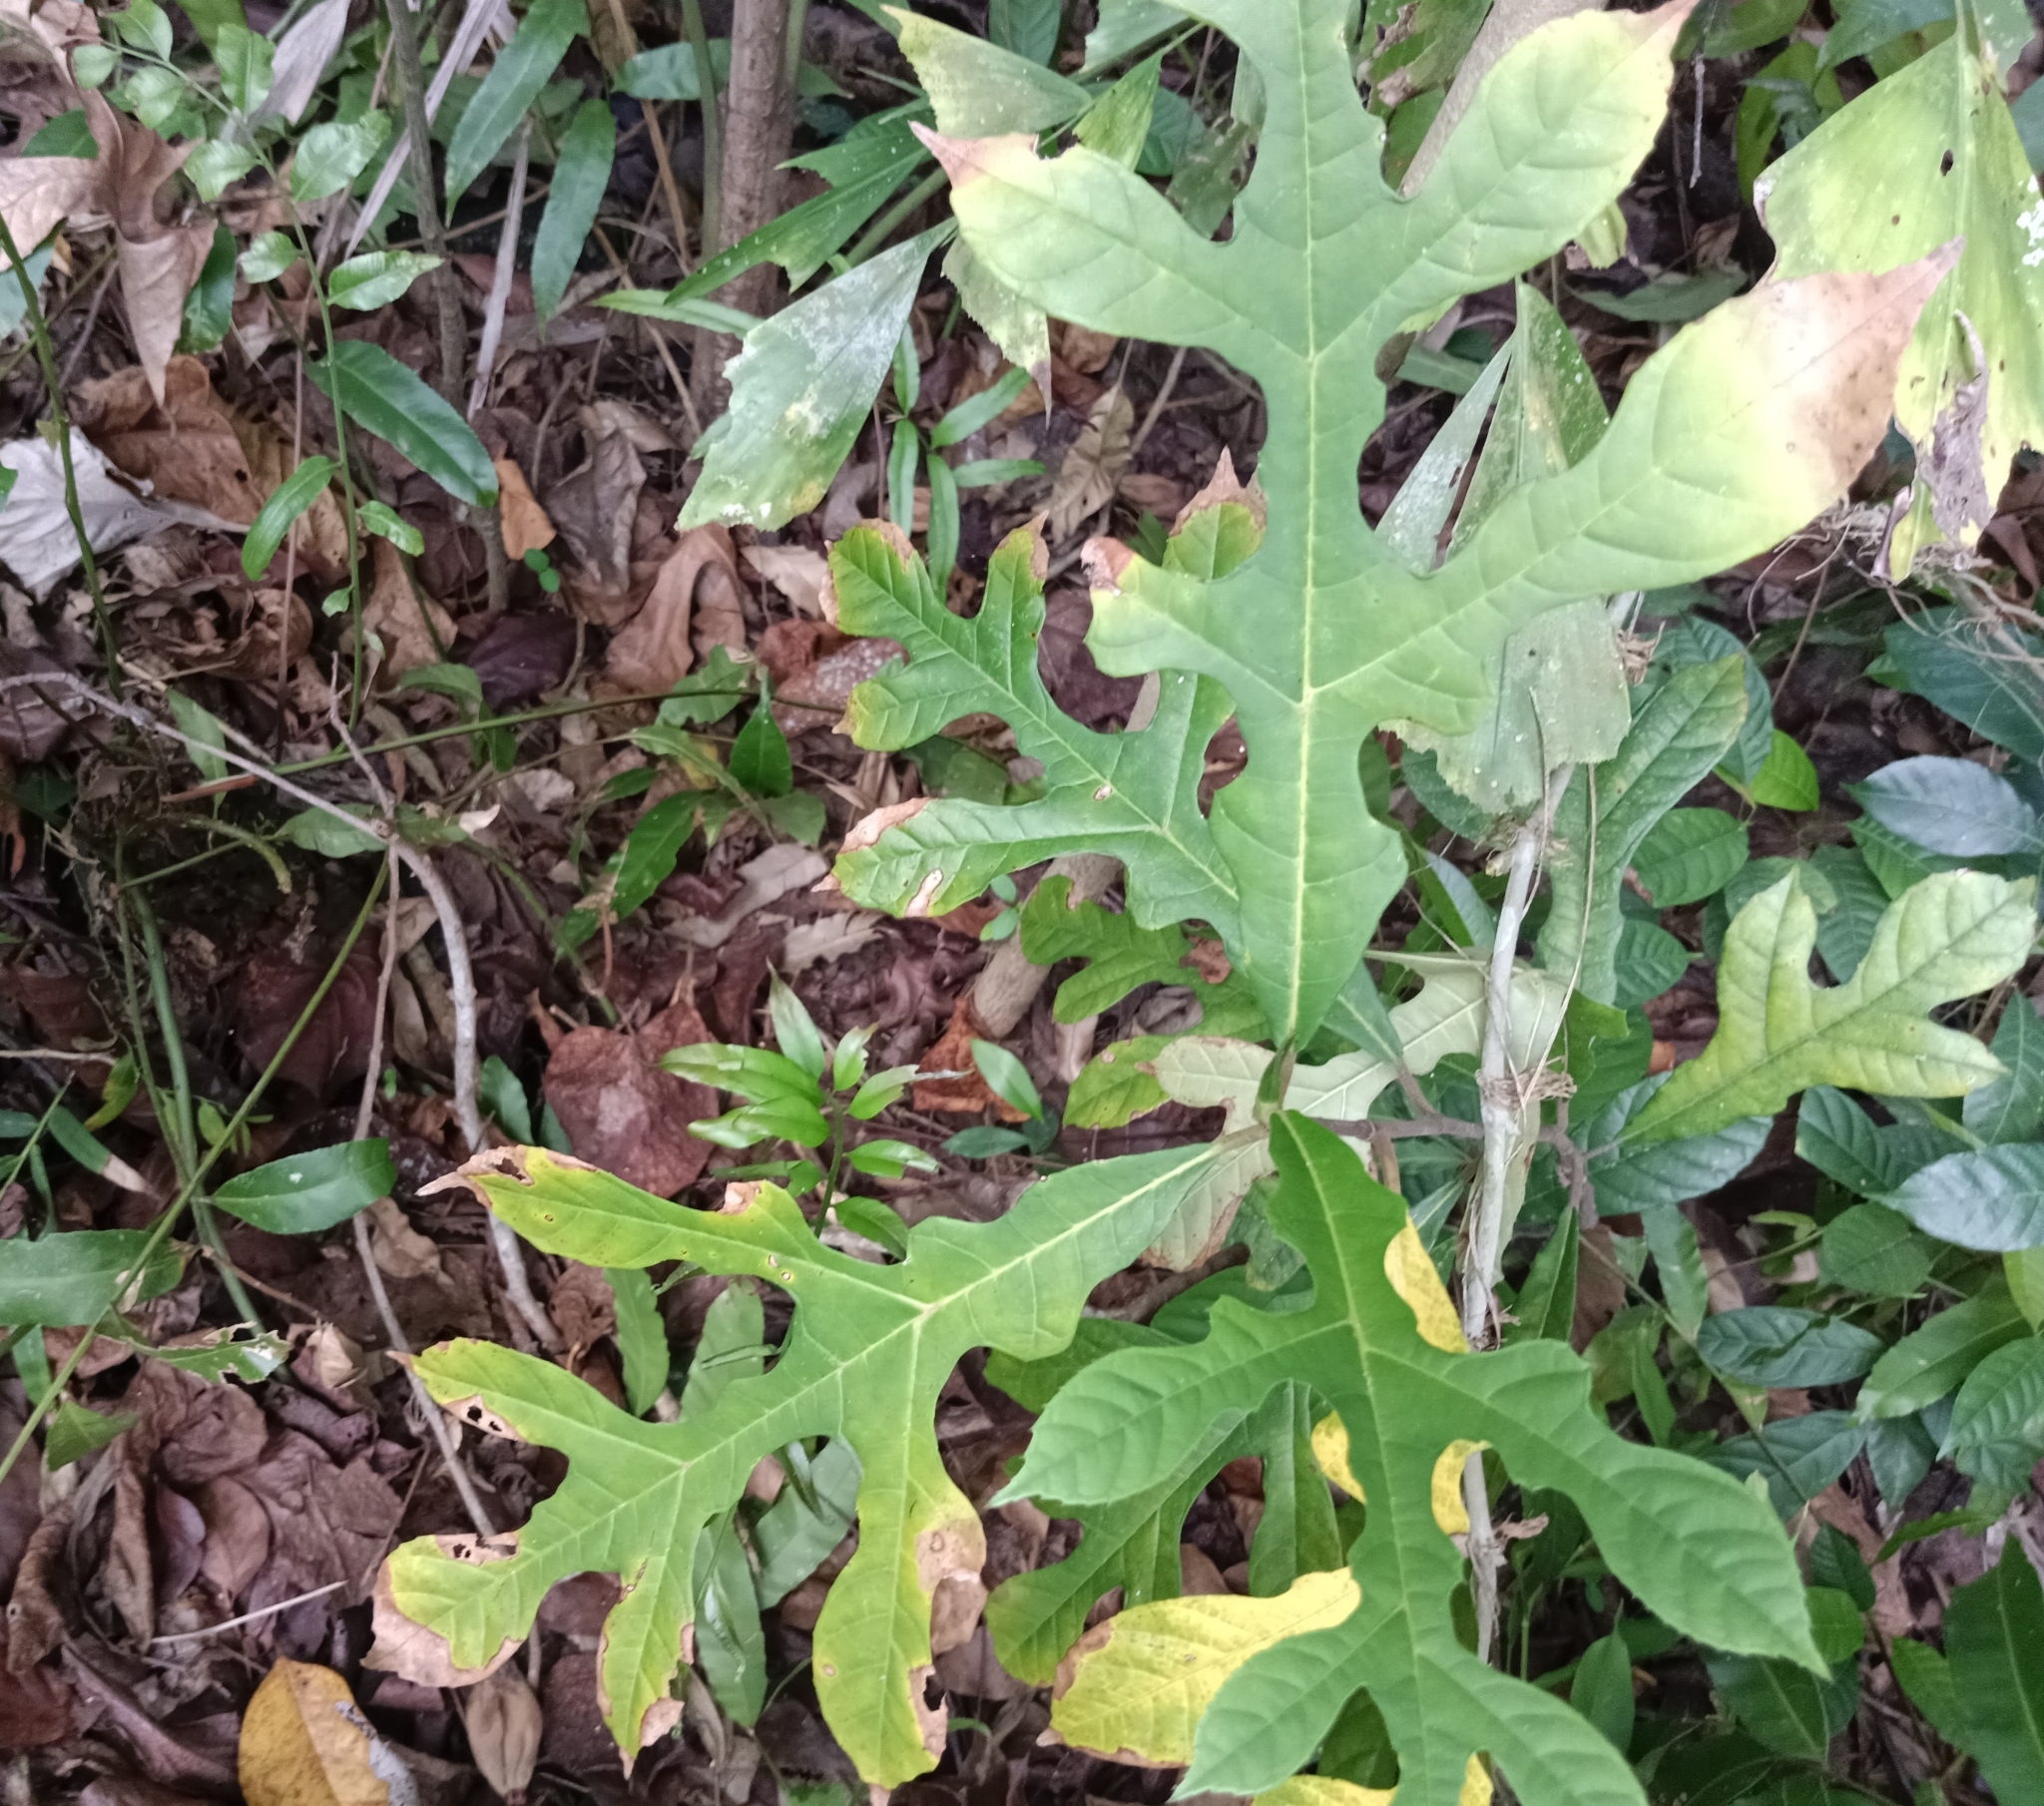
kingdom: Plantae
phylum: Tracheophyta
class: Magnoliopsida
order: Rosales
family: Moraceae
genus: Artocarpus
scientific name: Artocarpus hirsutus
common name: Hairy bread-fruit tree
